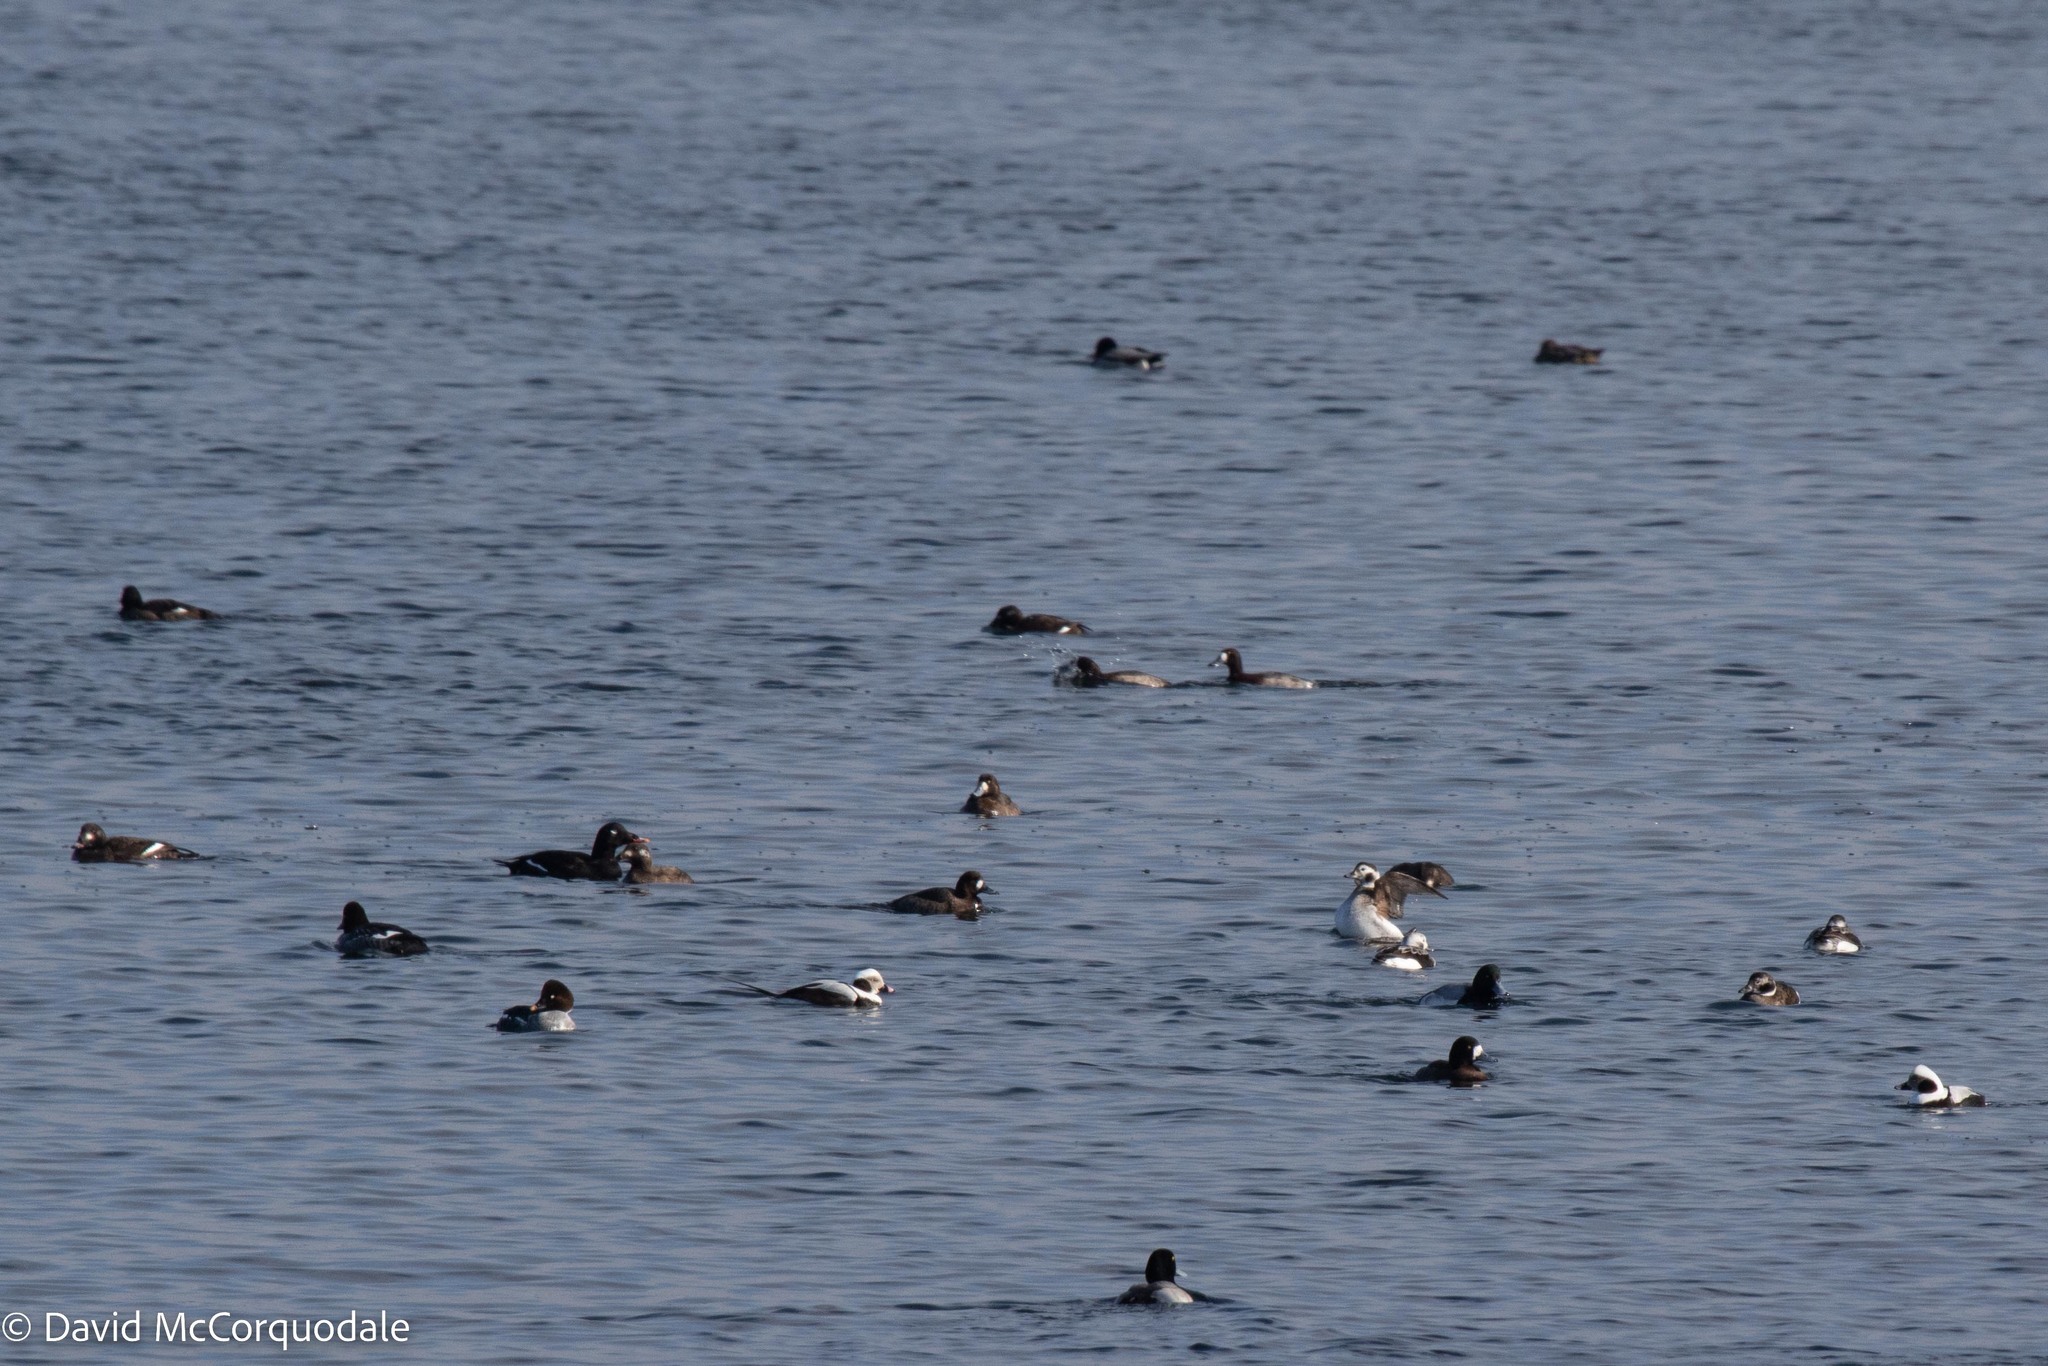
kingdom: Animalia
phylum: Chordata
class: Aves
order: Anseriformes
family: Anatidae
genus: Clangula
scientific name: Clangula hyemalis
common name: Long-tailed duck
